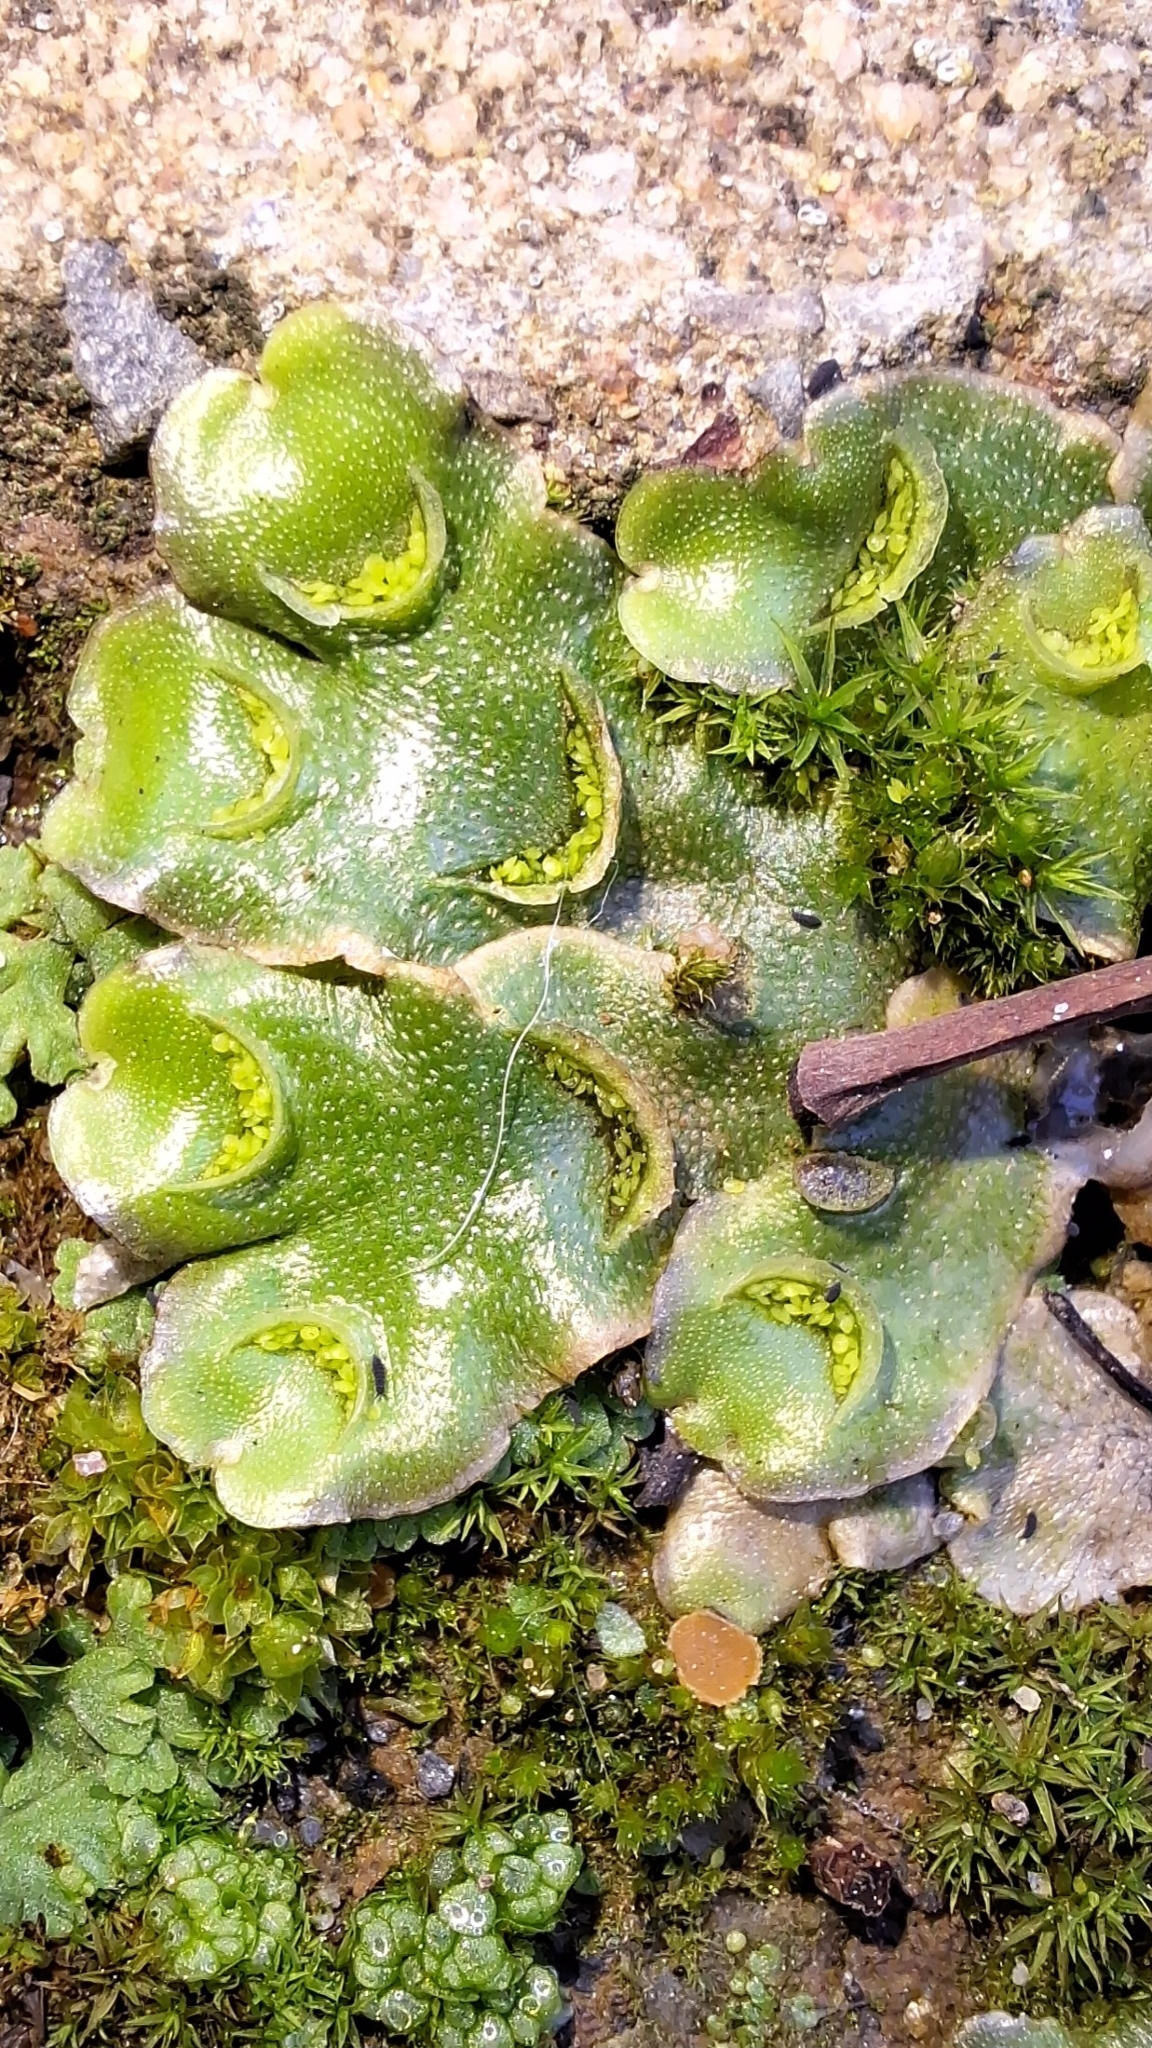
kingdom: Plantae
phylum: Marchantiophyta
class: Marchantiopsida
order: Lunulariales
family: Lunulariaceae
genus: Lunularia
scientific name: Lunularia cruciata
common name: Crescent-cup liverwort
